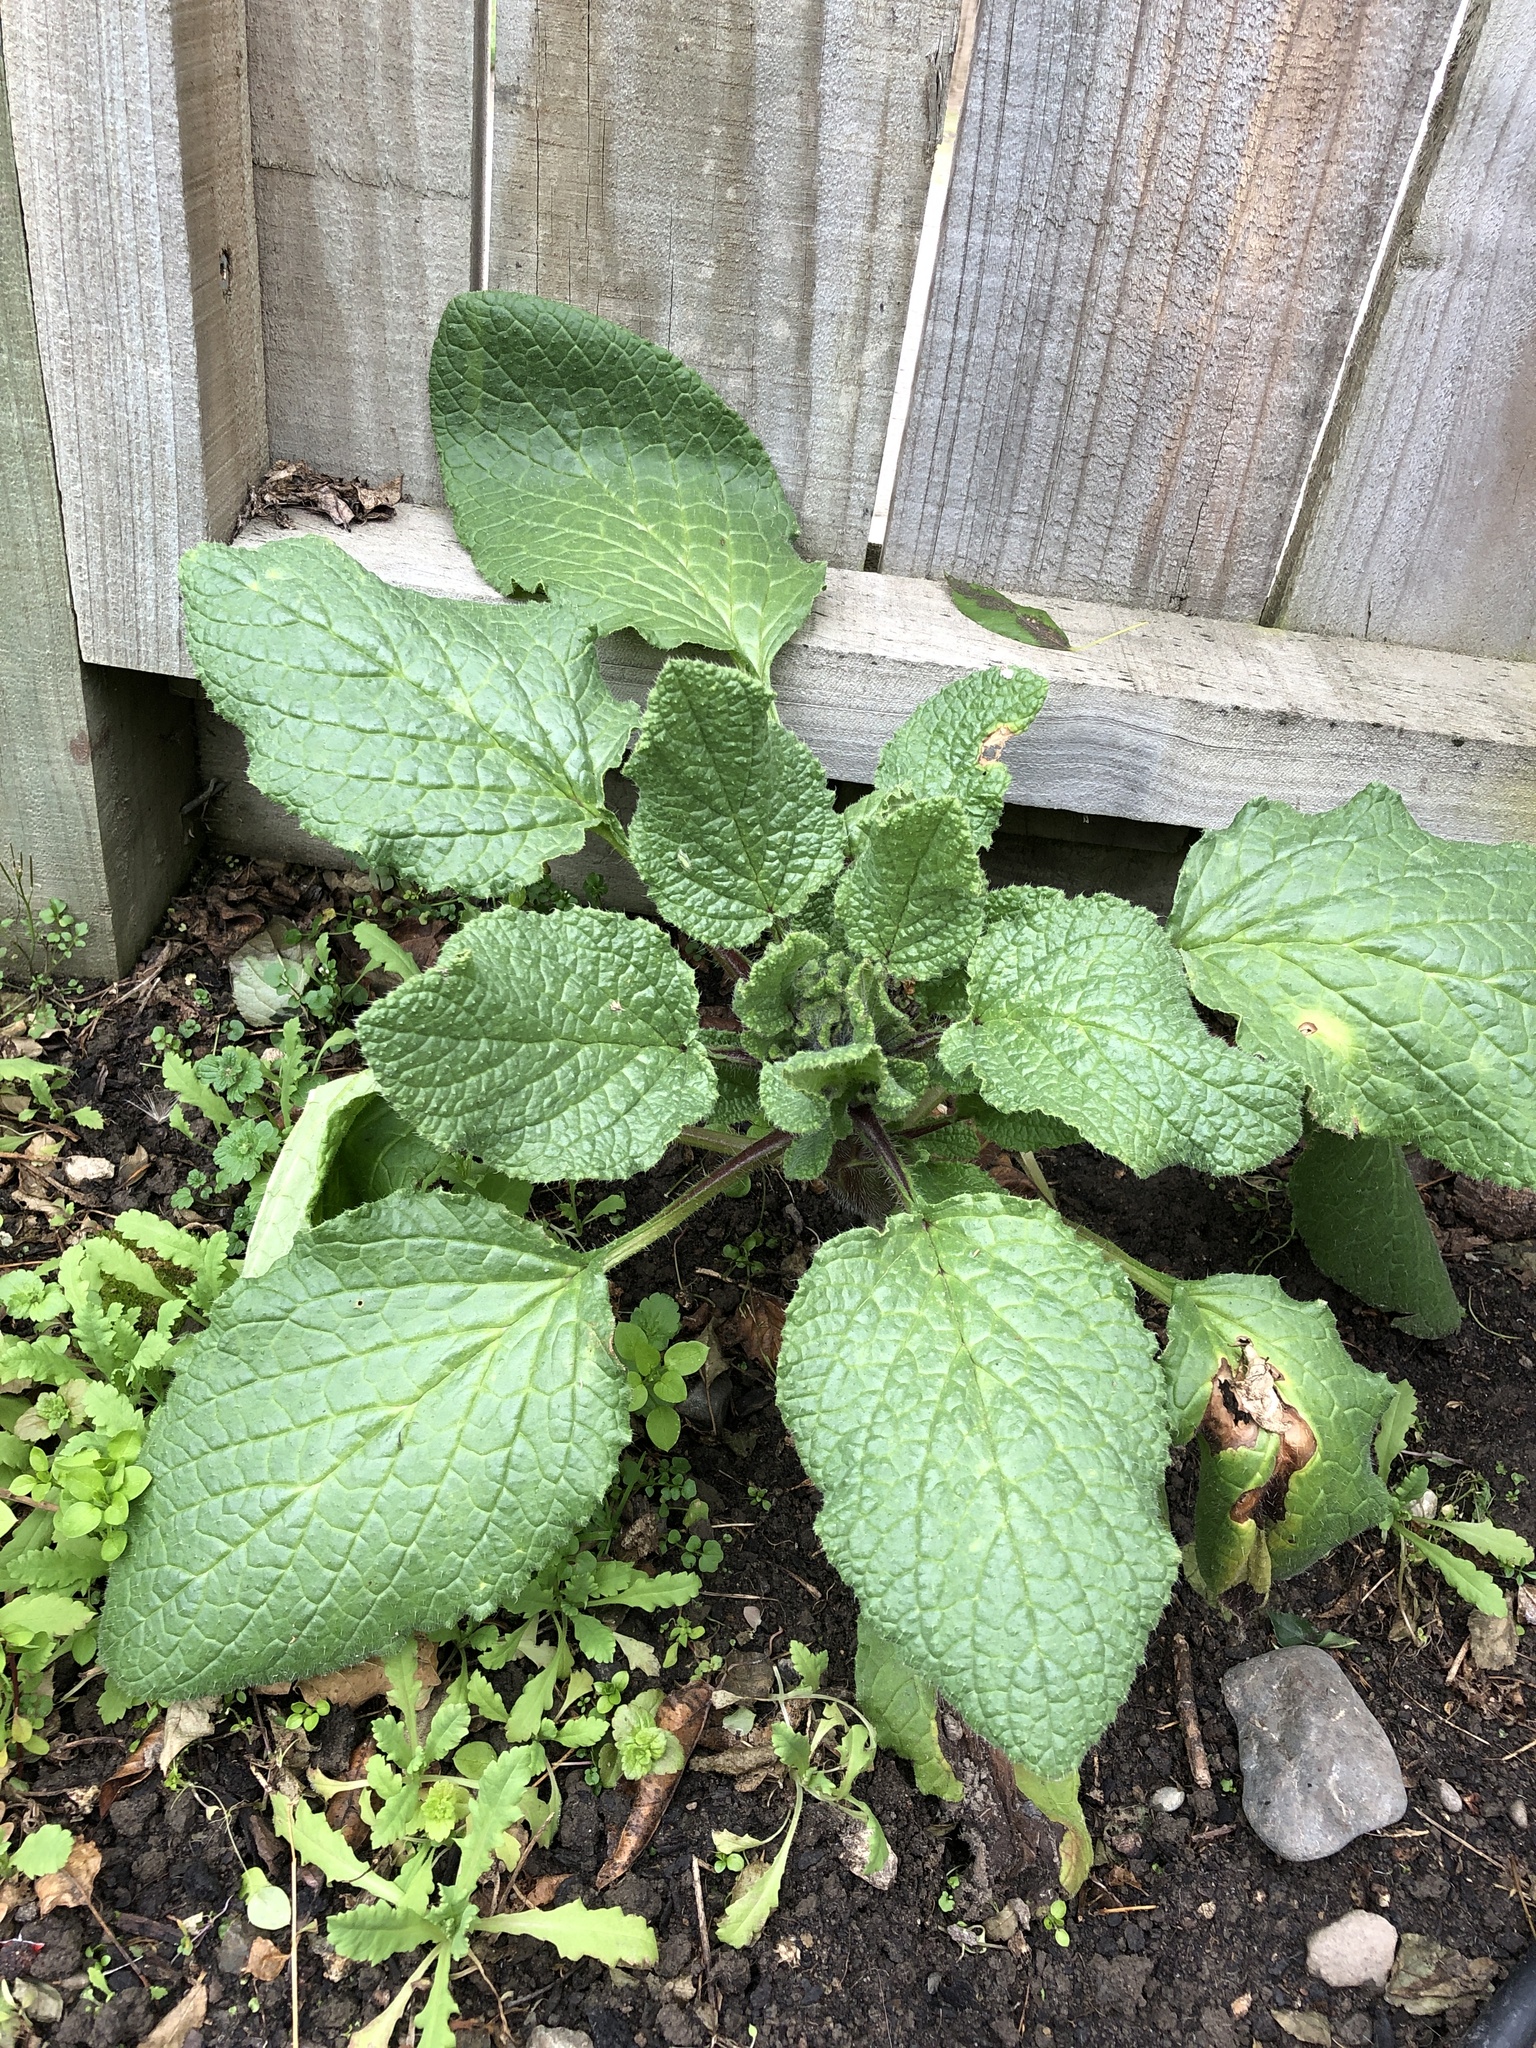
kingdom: Plantae
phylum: Tracheophyta
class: Magnoliopsida
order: Boraginales
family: Boraginaceae
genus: Borago
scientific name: Borago officinalis
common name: Borage
